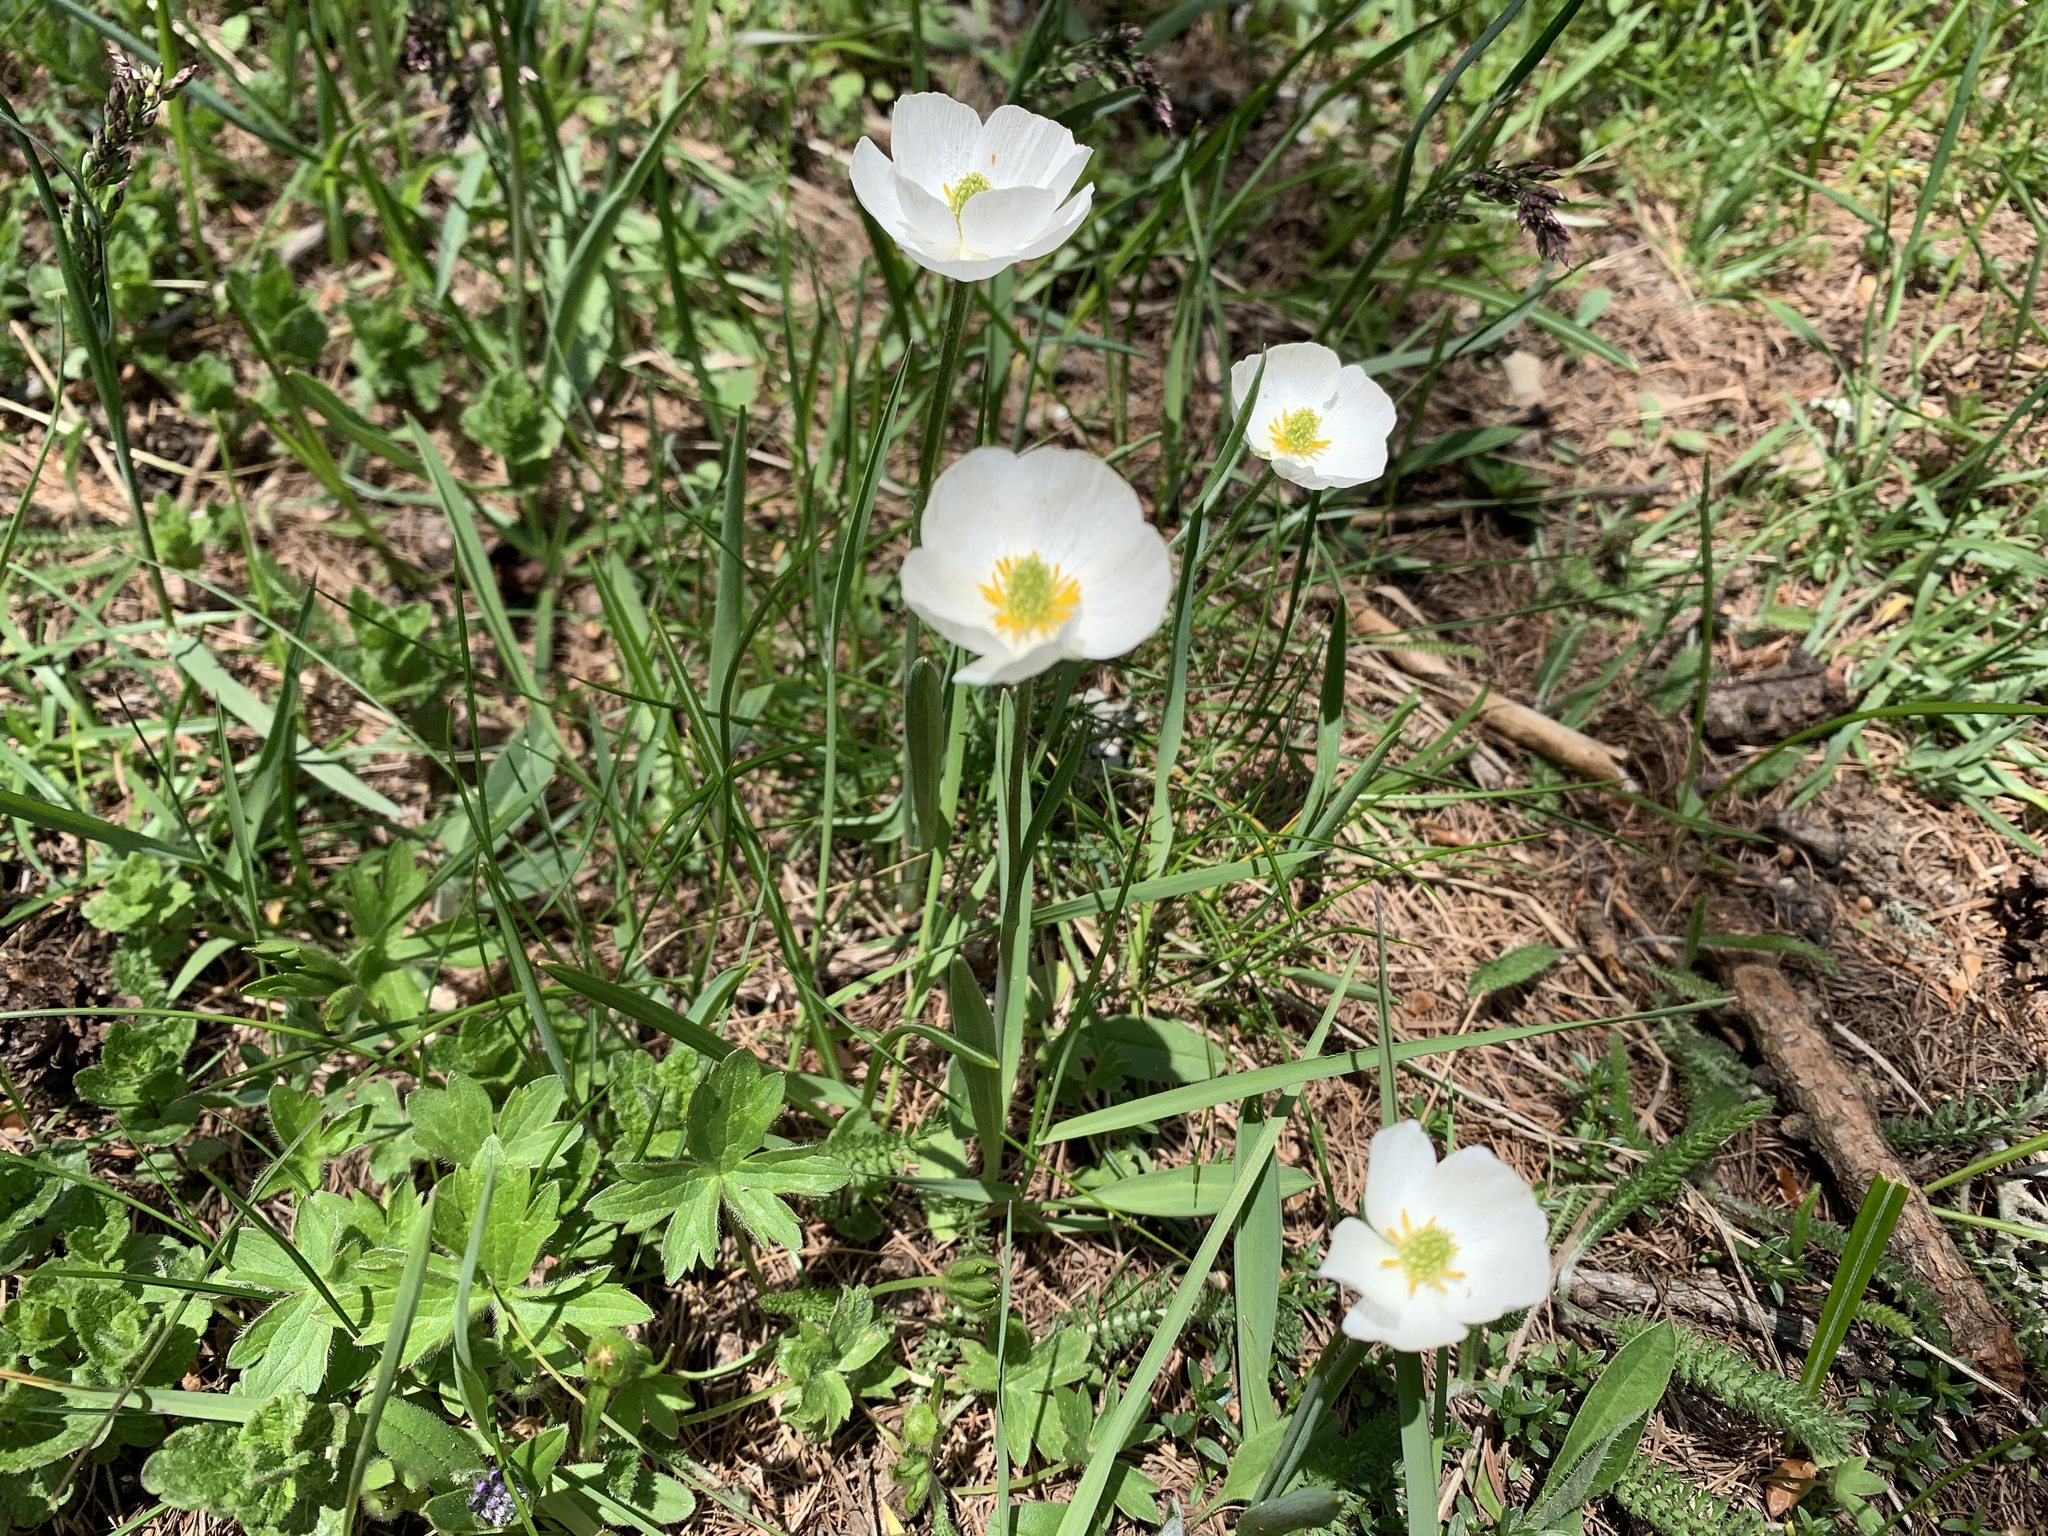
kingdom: Plantae
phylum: Tracheophyta
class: Magnoliopsida
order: Ranunculales
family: Ranunculaceae
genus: Ranunculus
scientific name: Ranunculus kuepferi
